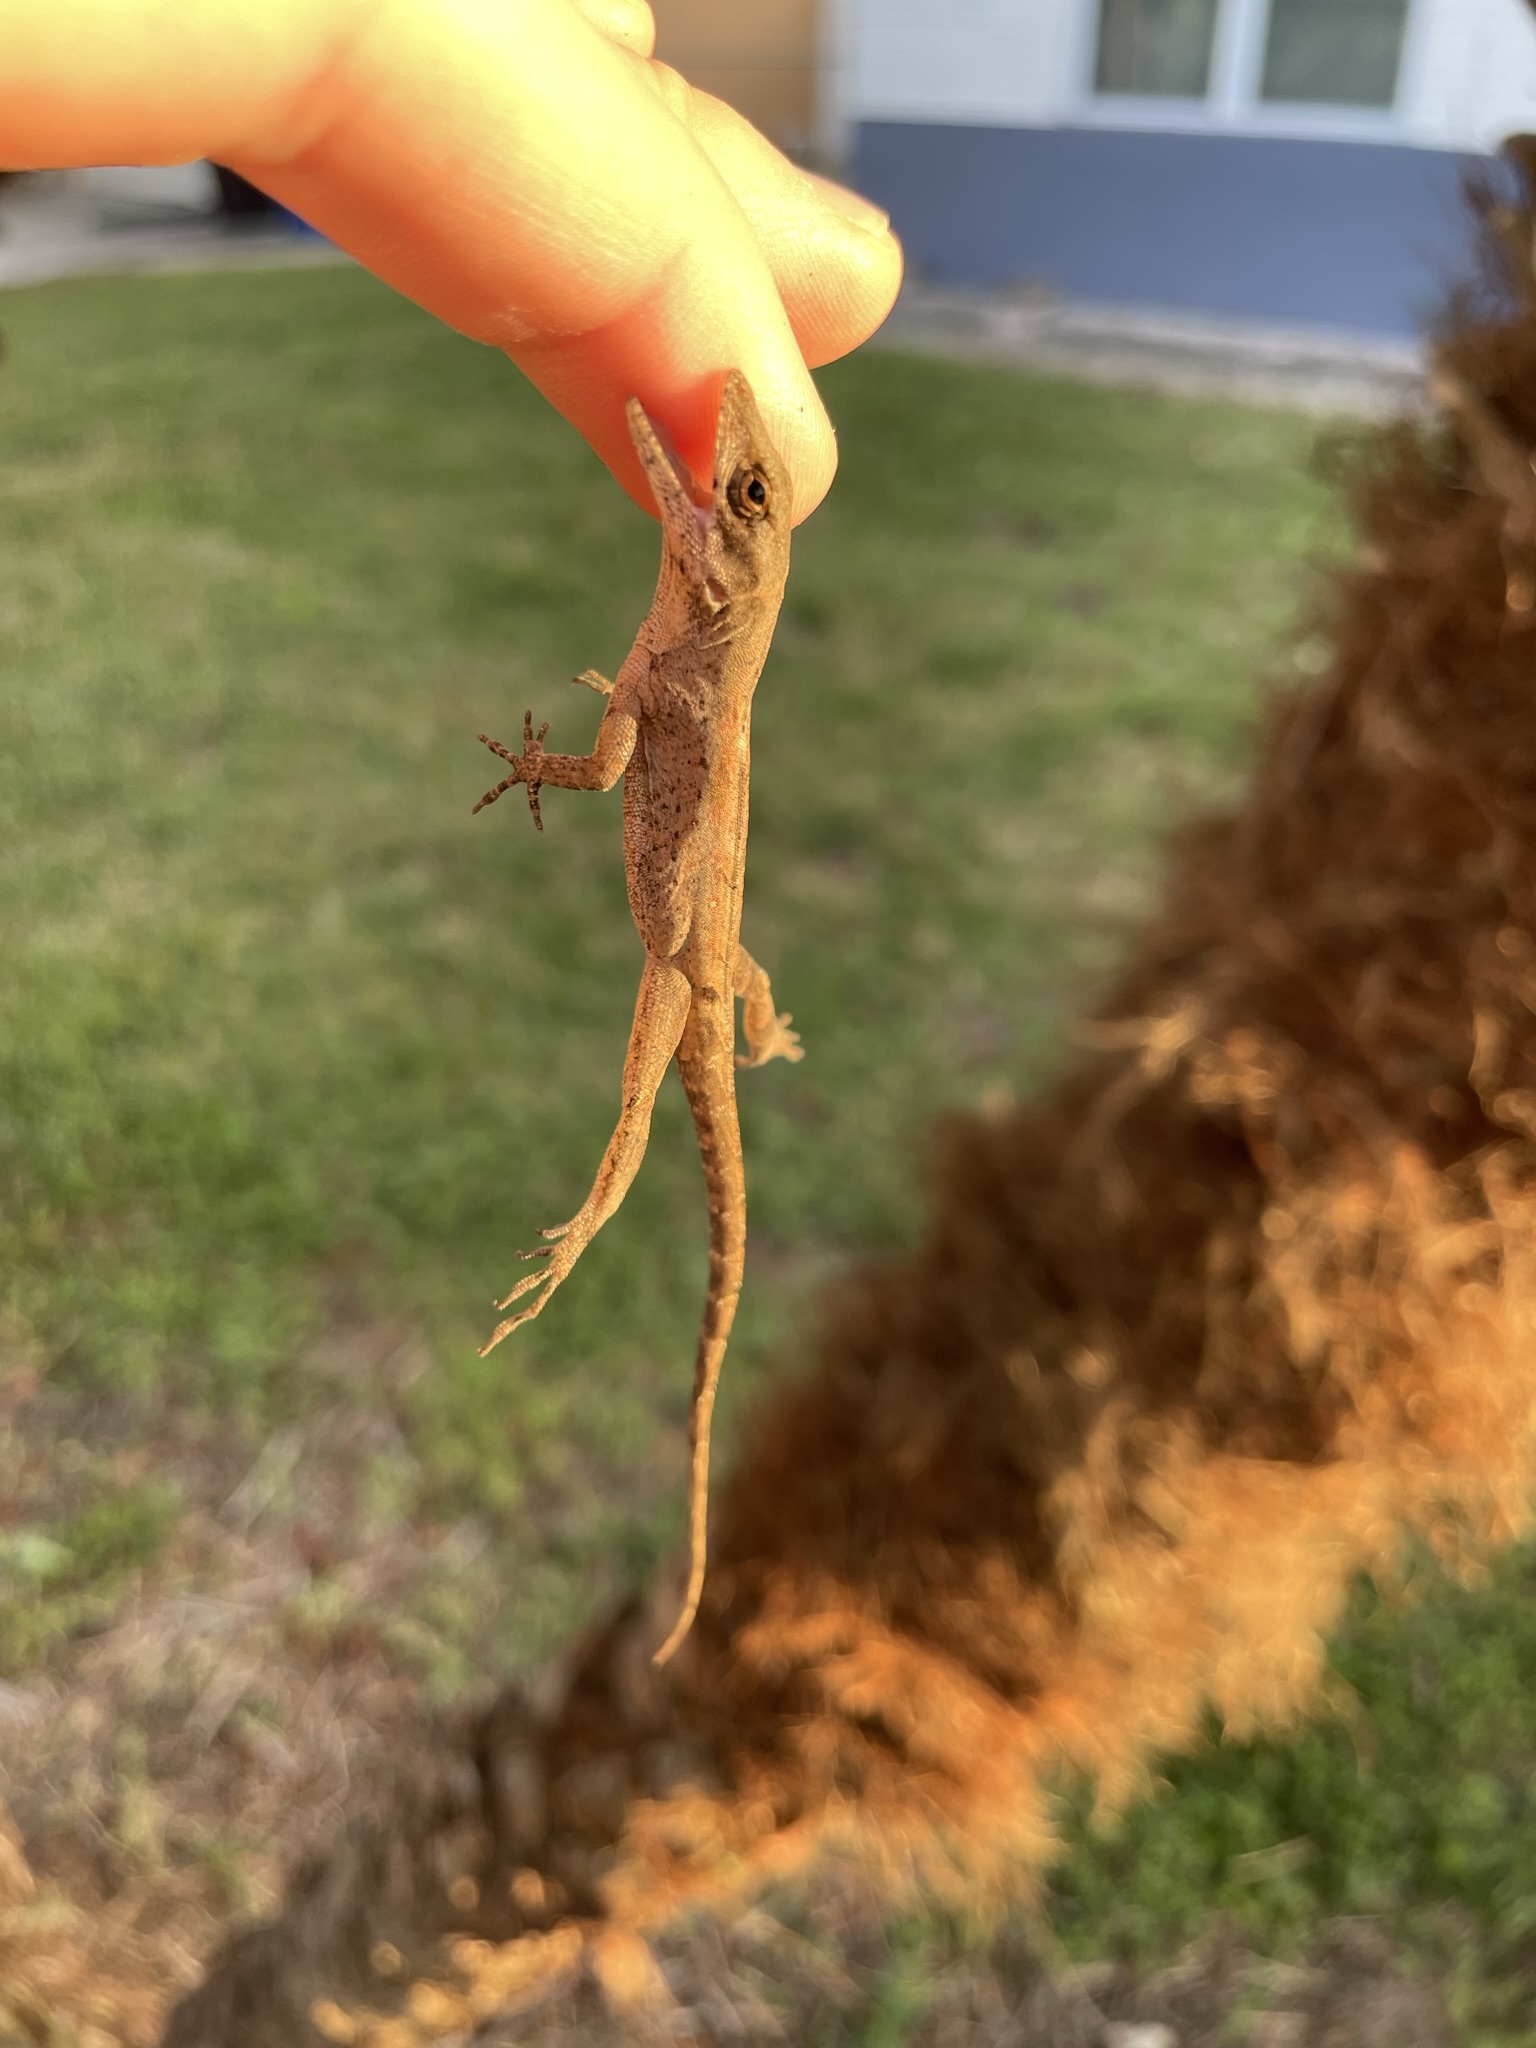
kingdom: Animalia
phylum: Chordata
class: Squamata
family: Dactyloidae
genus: Anolis
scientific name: Anolis sagrei
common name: Brown anole
